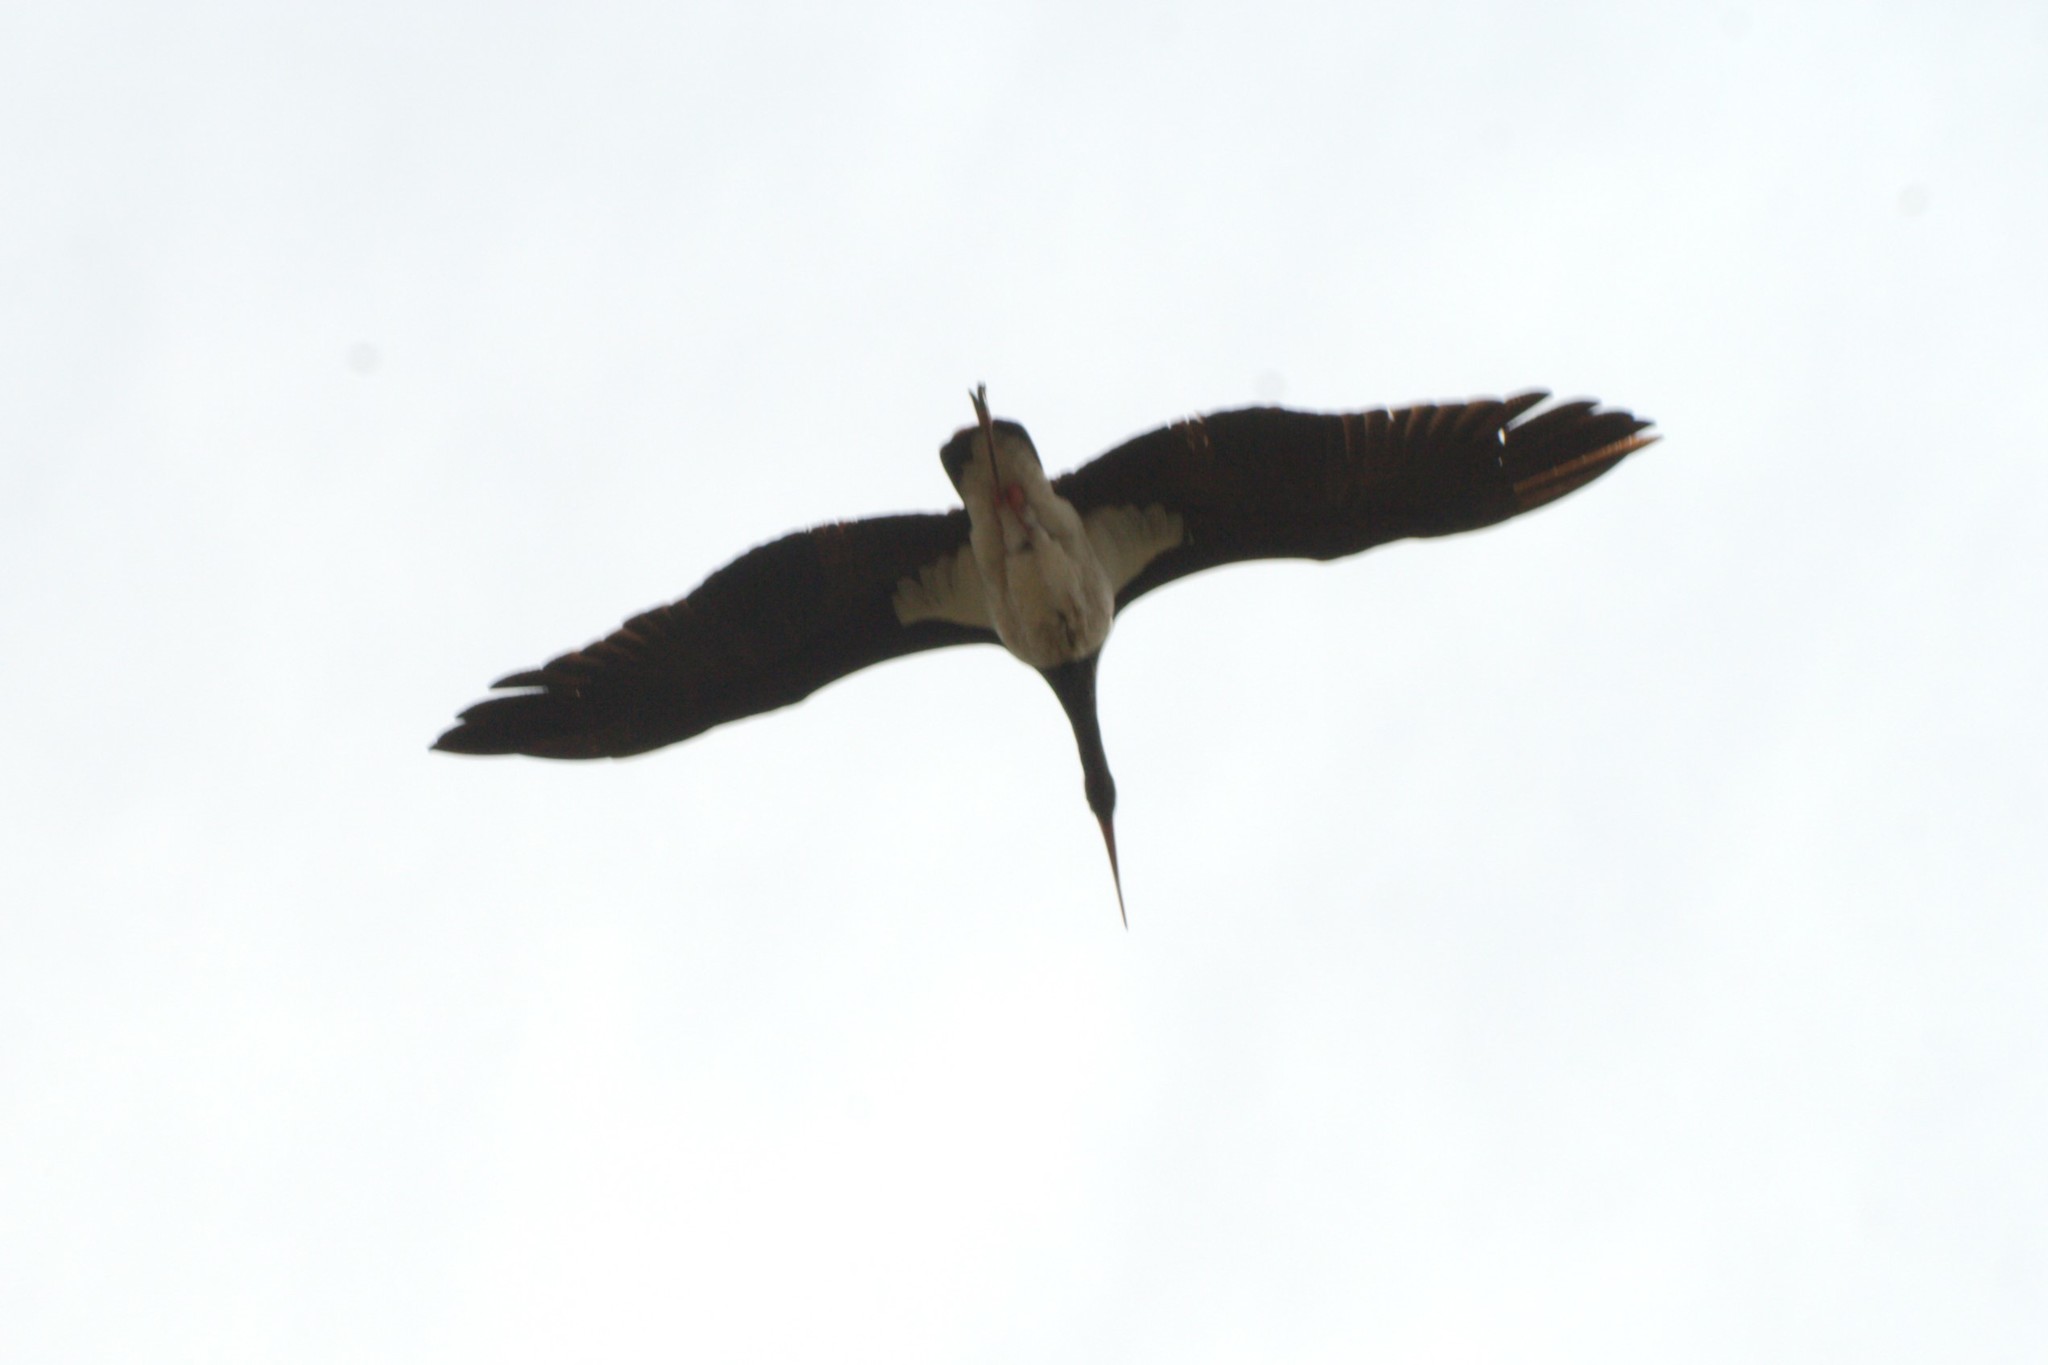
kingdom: Animalia
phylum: Chordata
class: Aves
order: Ciconiiformes
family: Ciconiidae
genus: Ciconia
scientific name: Ciconia nigra
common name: Black stork
